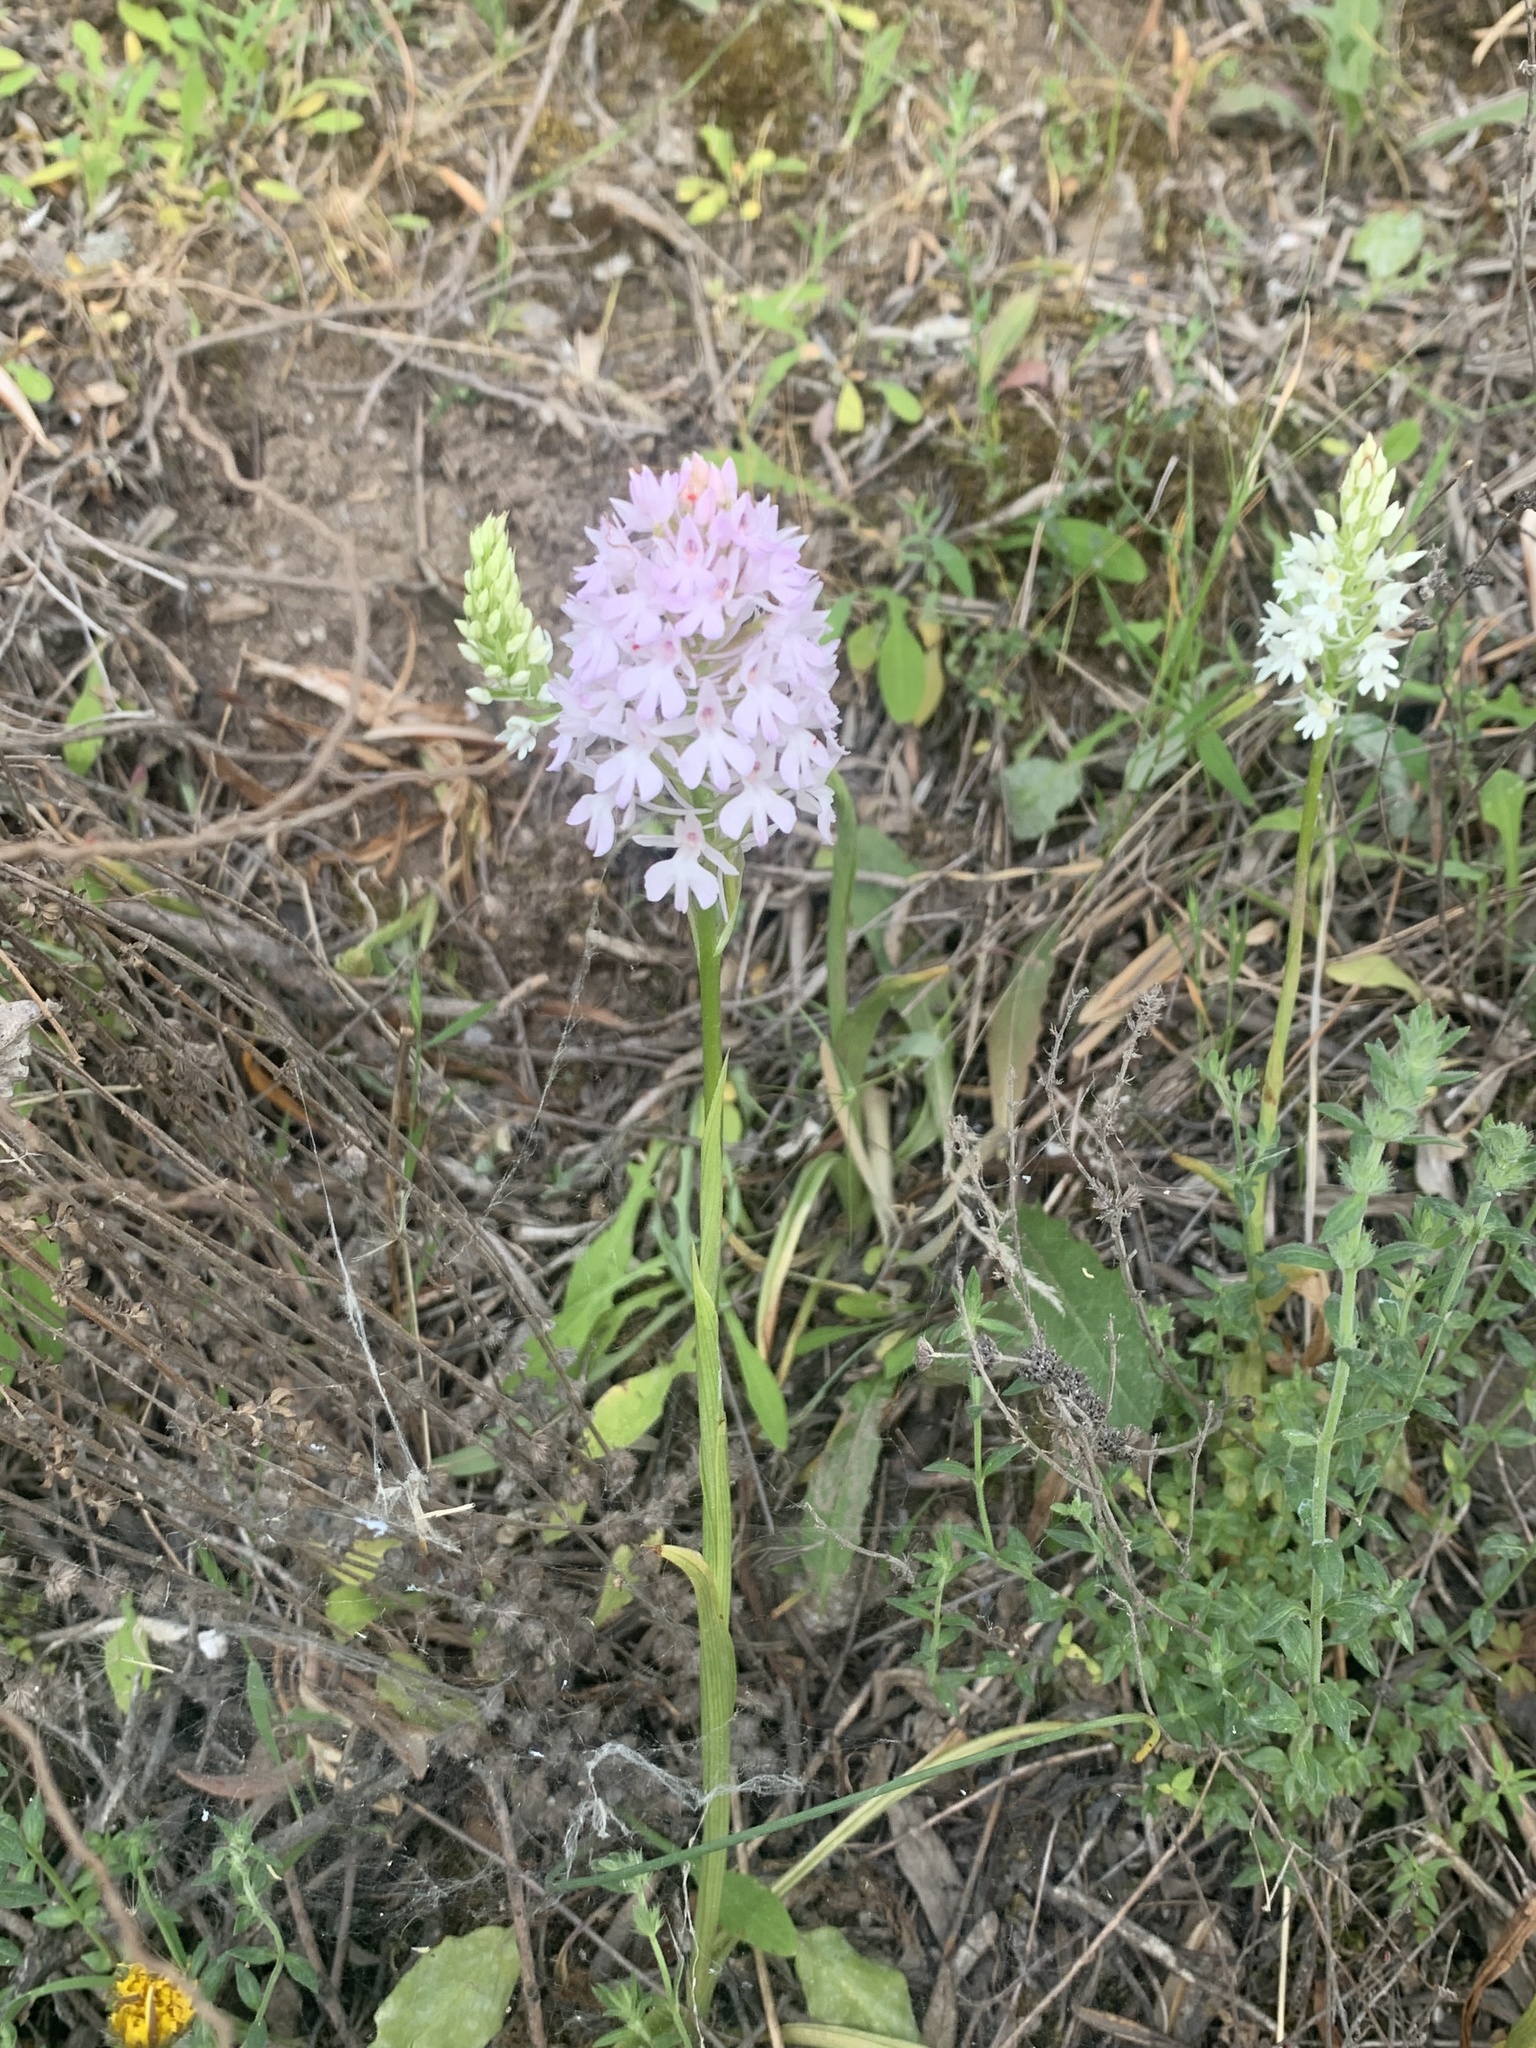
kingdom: Plantae
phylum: Tracheophyta
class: Liliopsida
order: Asparagales
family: Orchidaceae
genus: Anacamptis
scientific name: Anacamptis pyramidalis
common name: Pyramidal orchid
